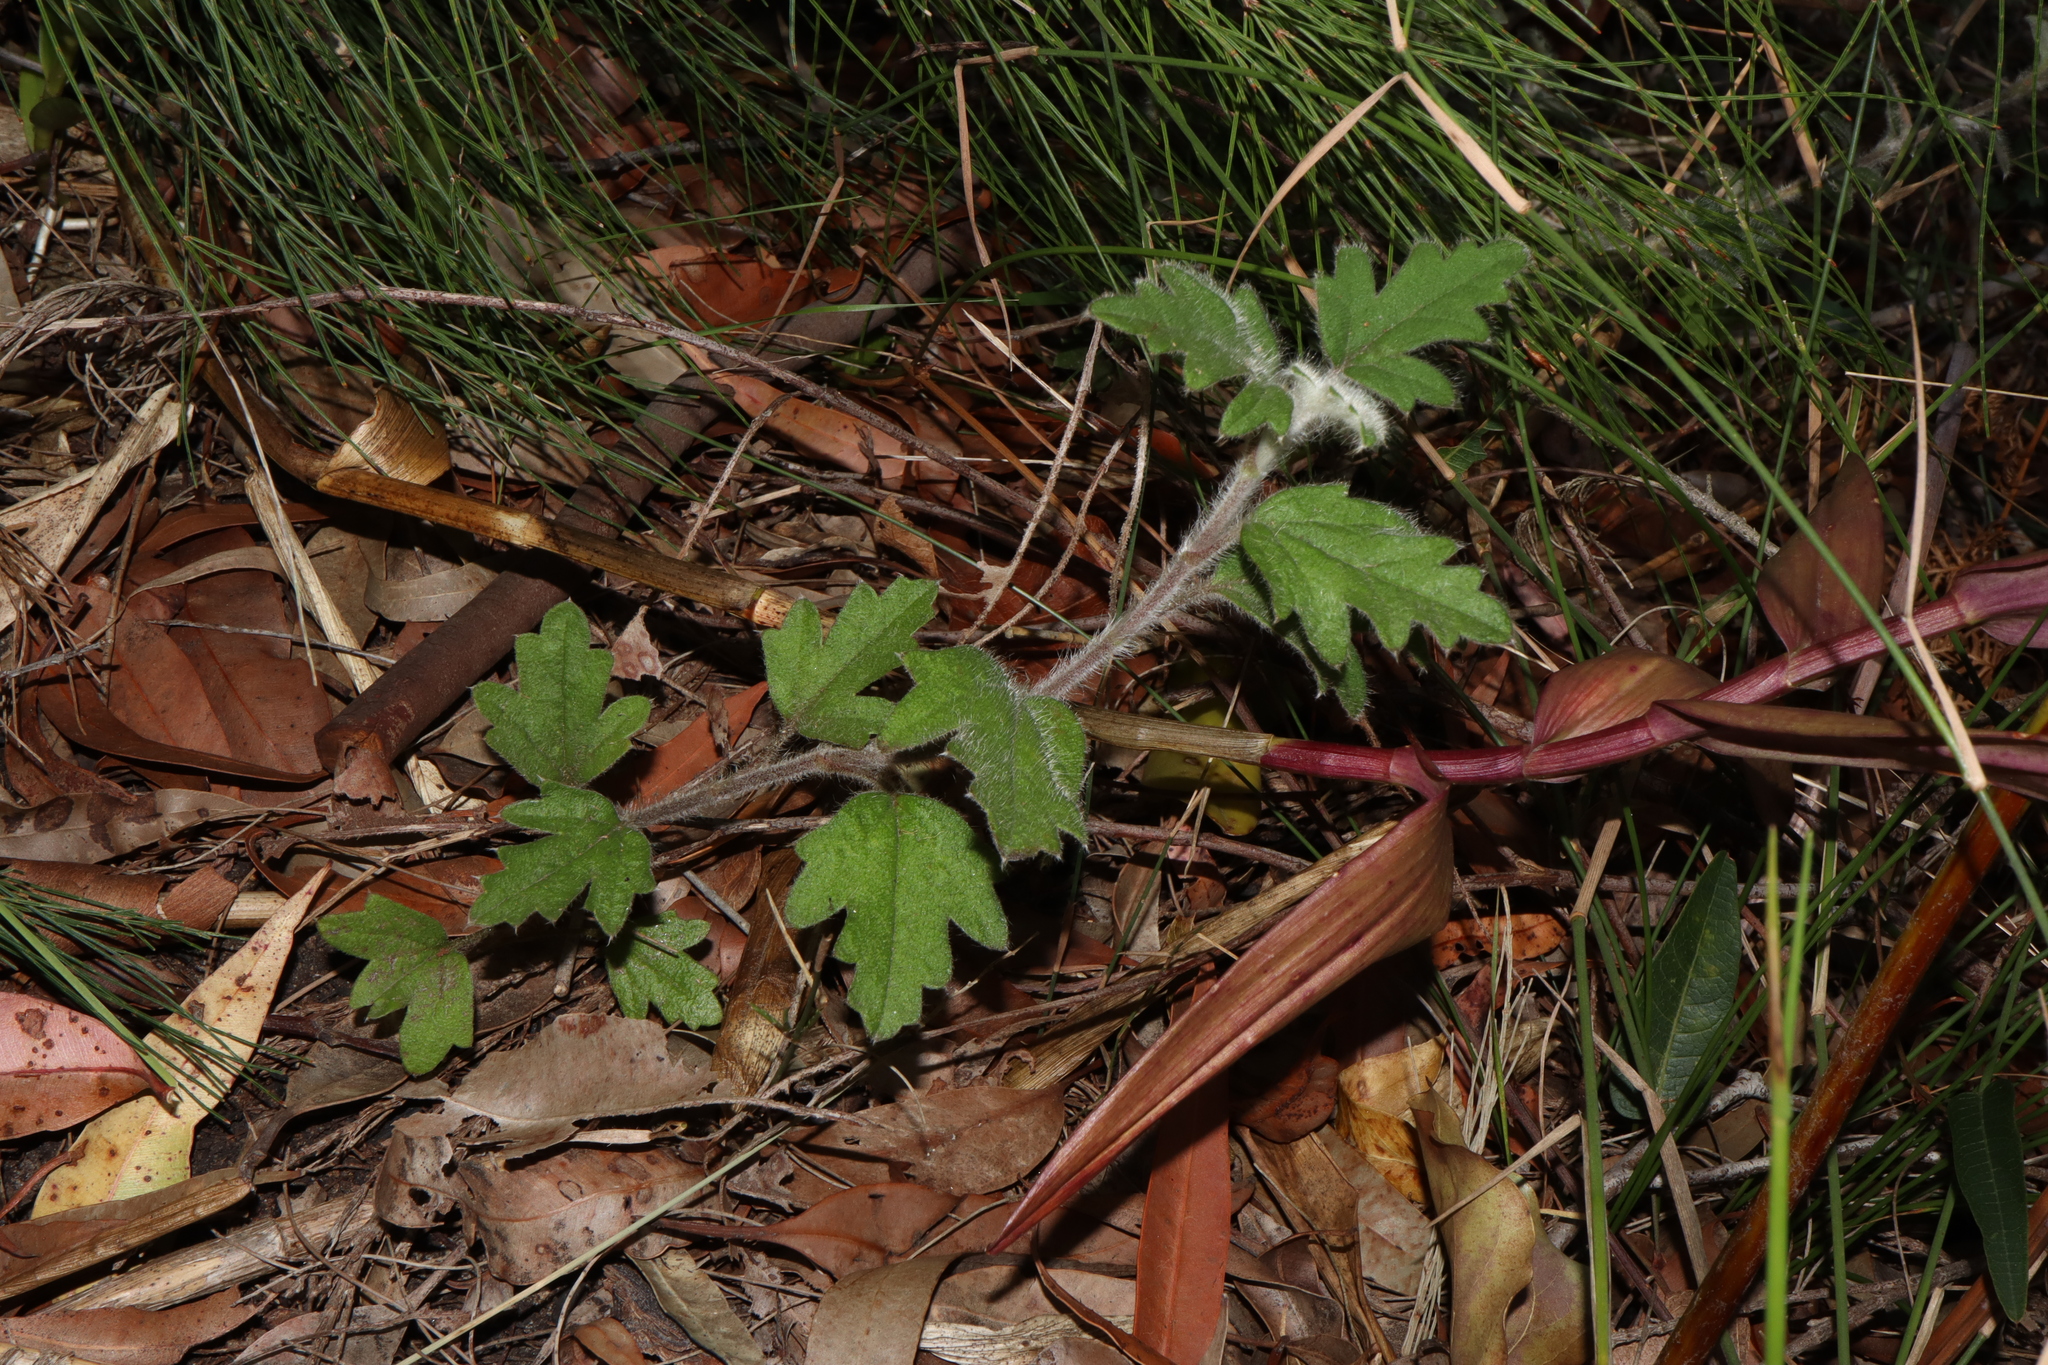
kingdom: Plantae
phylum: Tracheophyta
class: Magnoliopsida
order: Apiales
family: Apiaceae
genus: Xanthosia
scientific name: Xanthosia pilosa
